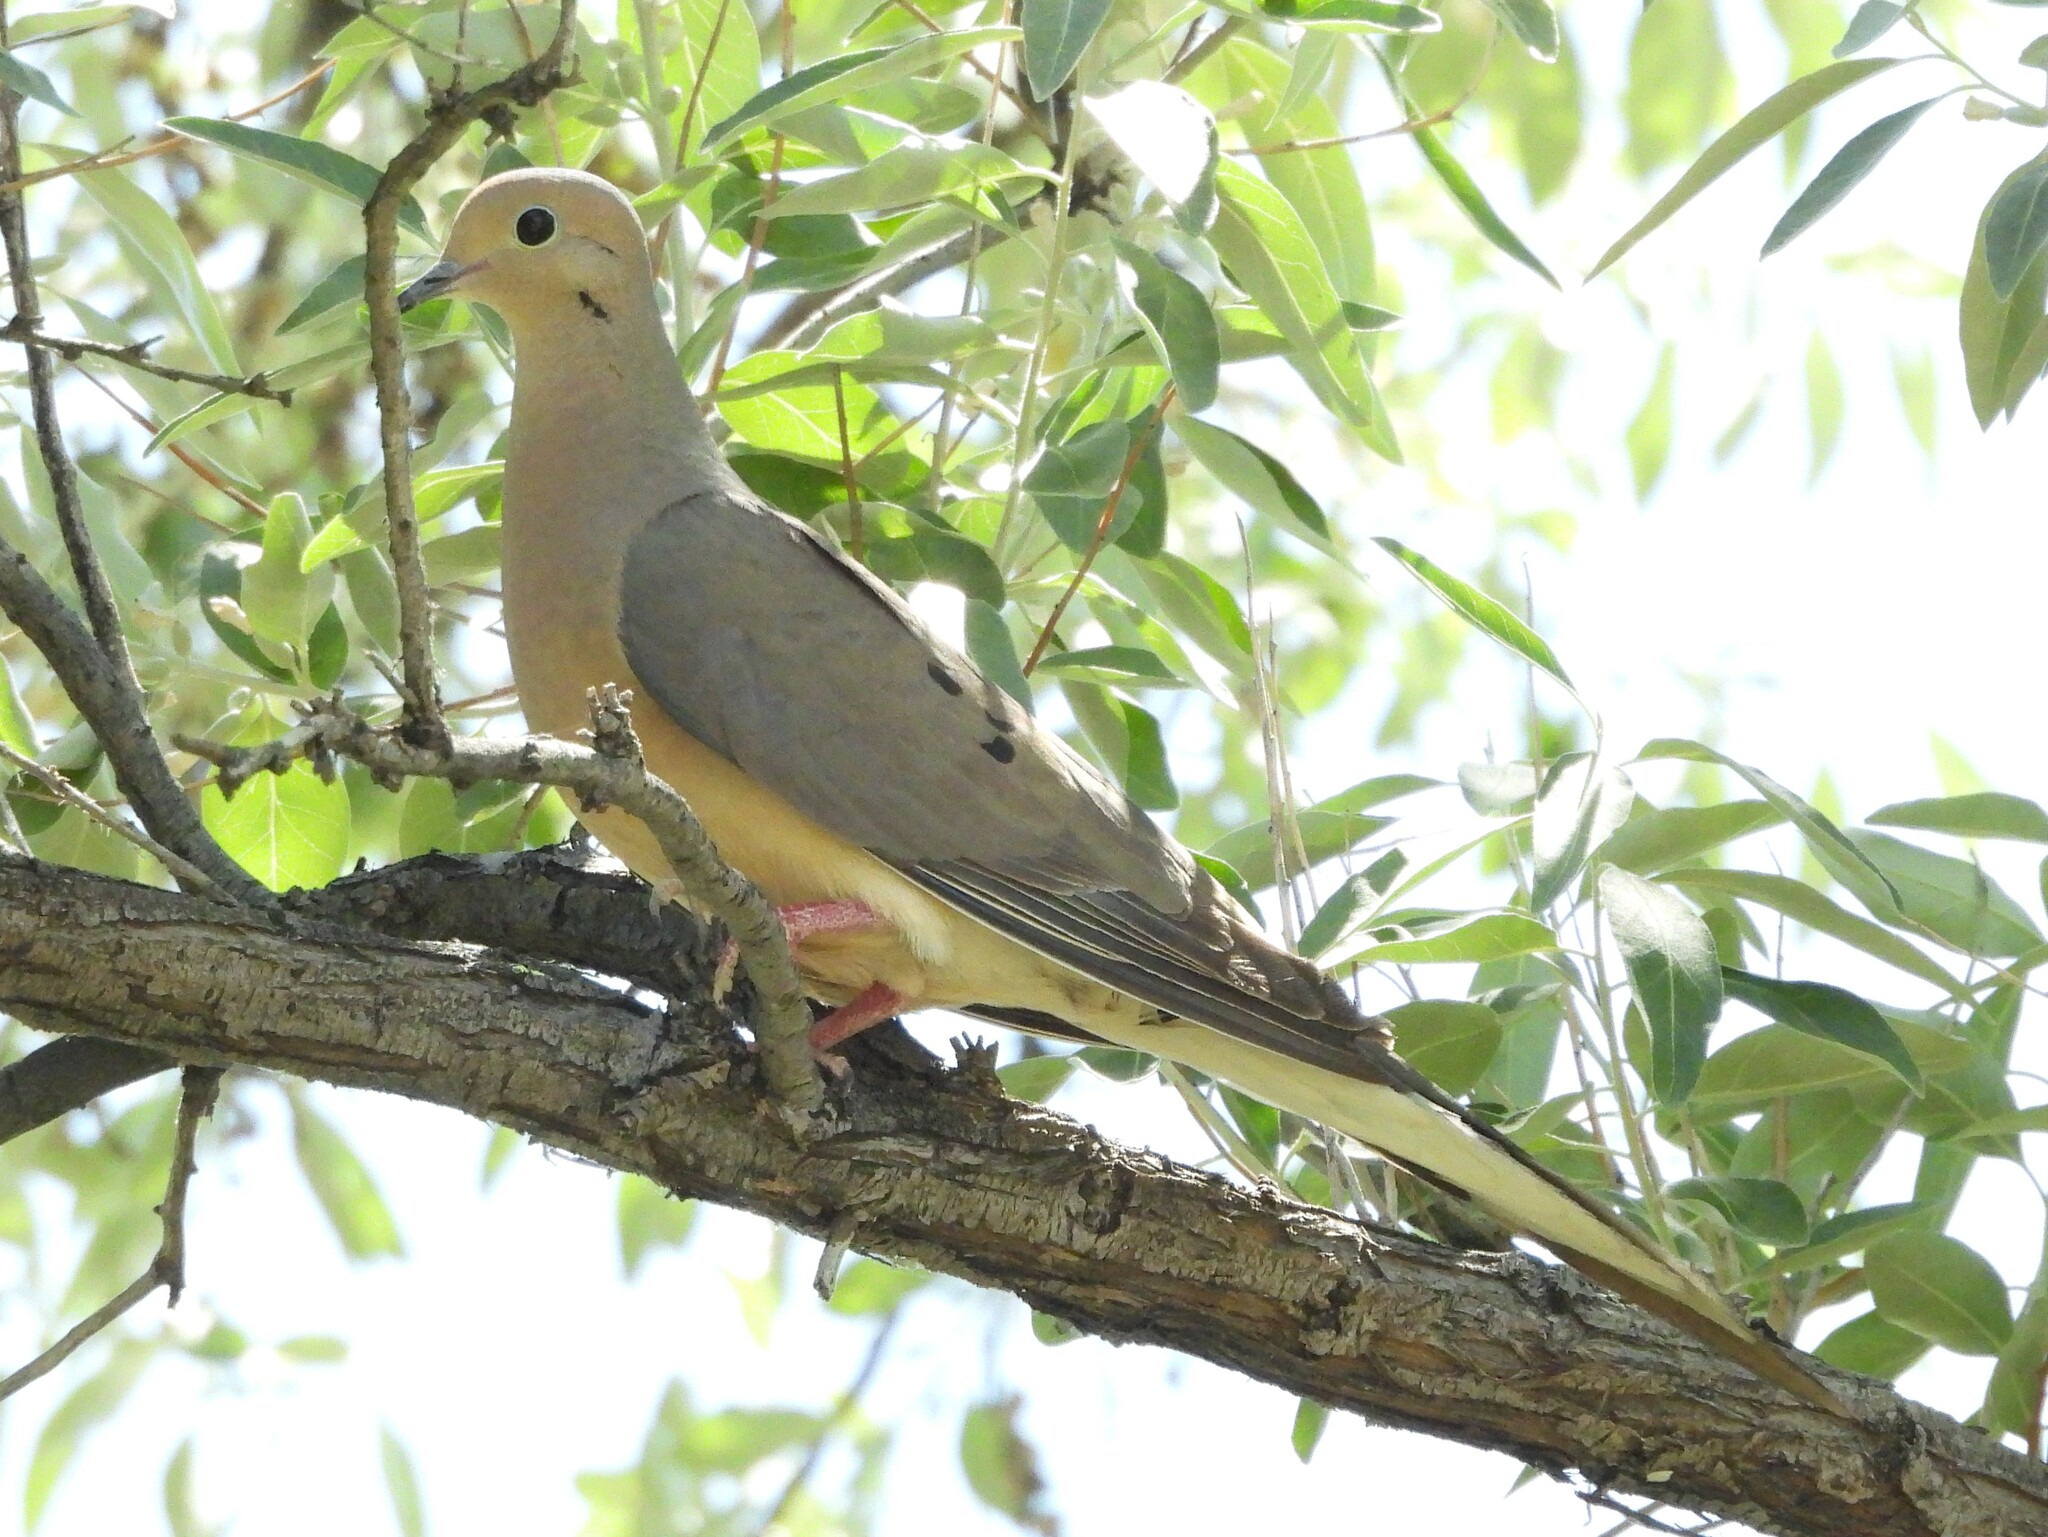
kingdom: Animalia
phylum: Chordata
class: Aves
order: Columbiformes
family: Columbidae
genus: Zenaida
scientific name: Zenaida macroura
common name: Mourning dove
